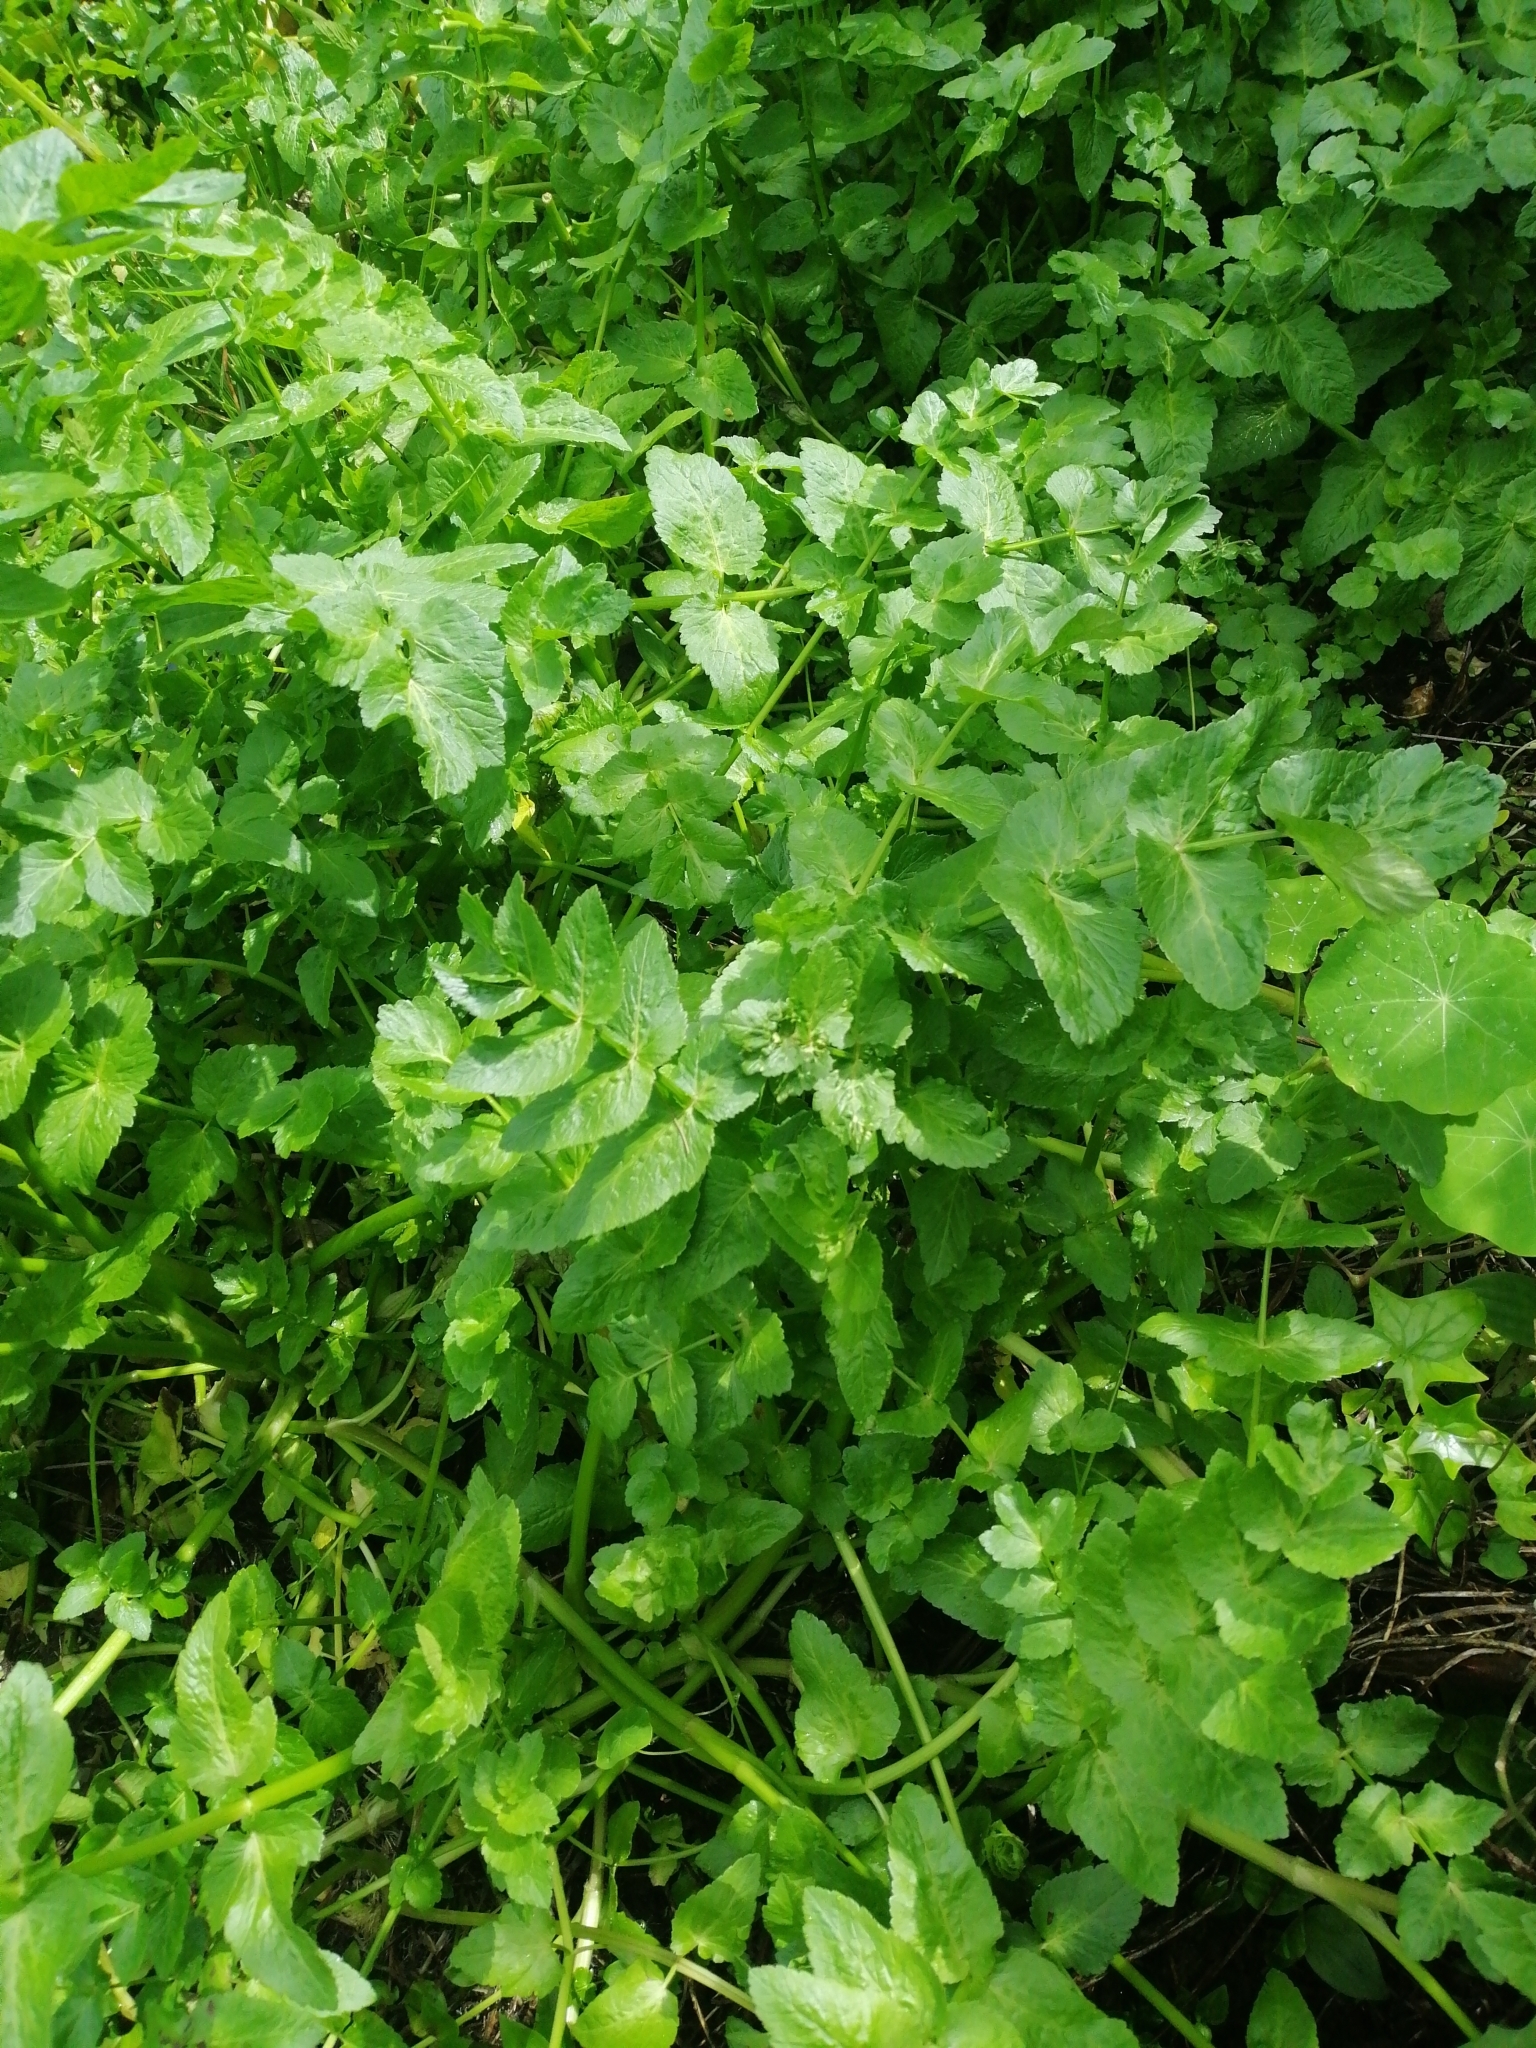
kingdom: Plantae
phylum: Tracheophyta
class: Magnoliopsida
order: Apiales
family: Apiaceae
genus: Helosciadium
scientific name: Helosciadium nodiflorum
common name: Fool's-watercress
